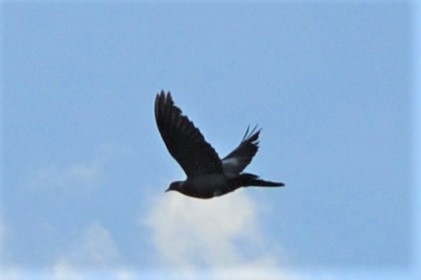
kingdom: Animalia
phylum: Chordata
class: Aves
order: Columbiformes
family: Columbidae
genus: Columba
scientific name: Columba palumbus
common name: Common wood pigeon
